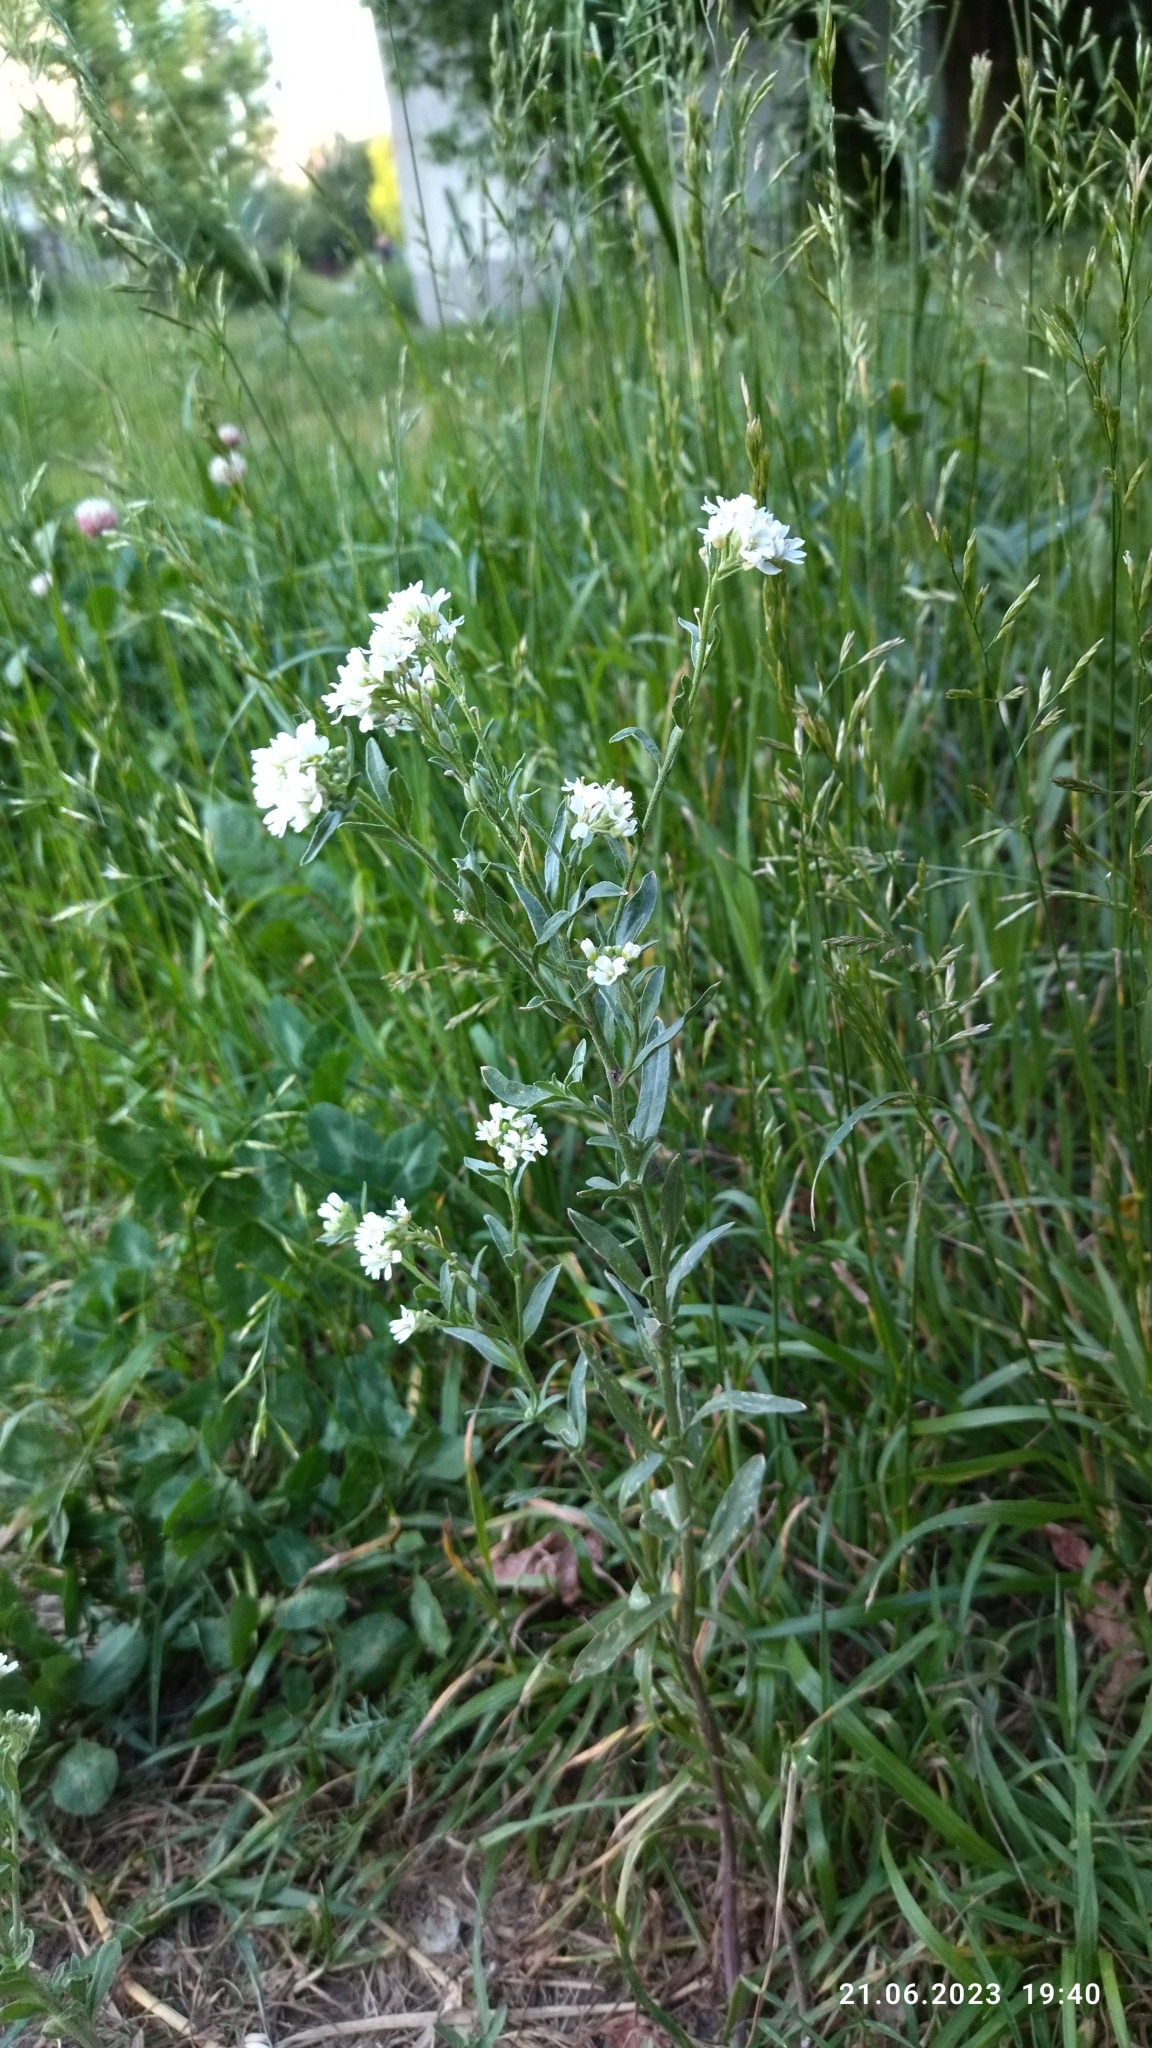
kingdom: Plantae
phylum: Tracheophyta
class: Magnoliopsida
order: Brassicales
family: Brassicaceae
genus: Berteroa
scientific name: Berteroa incana
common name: Hoary alison
